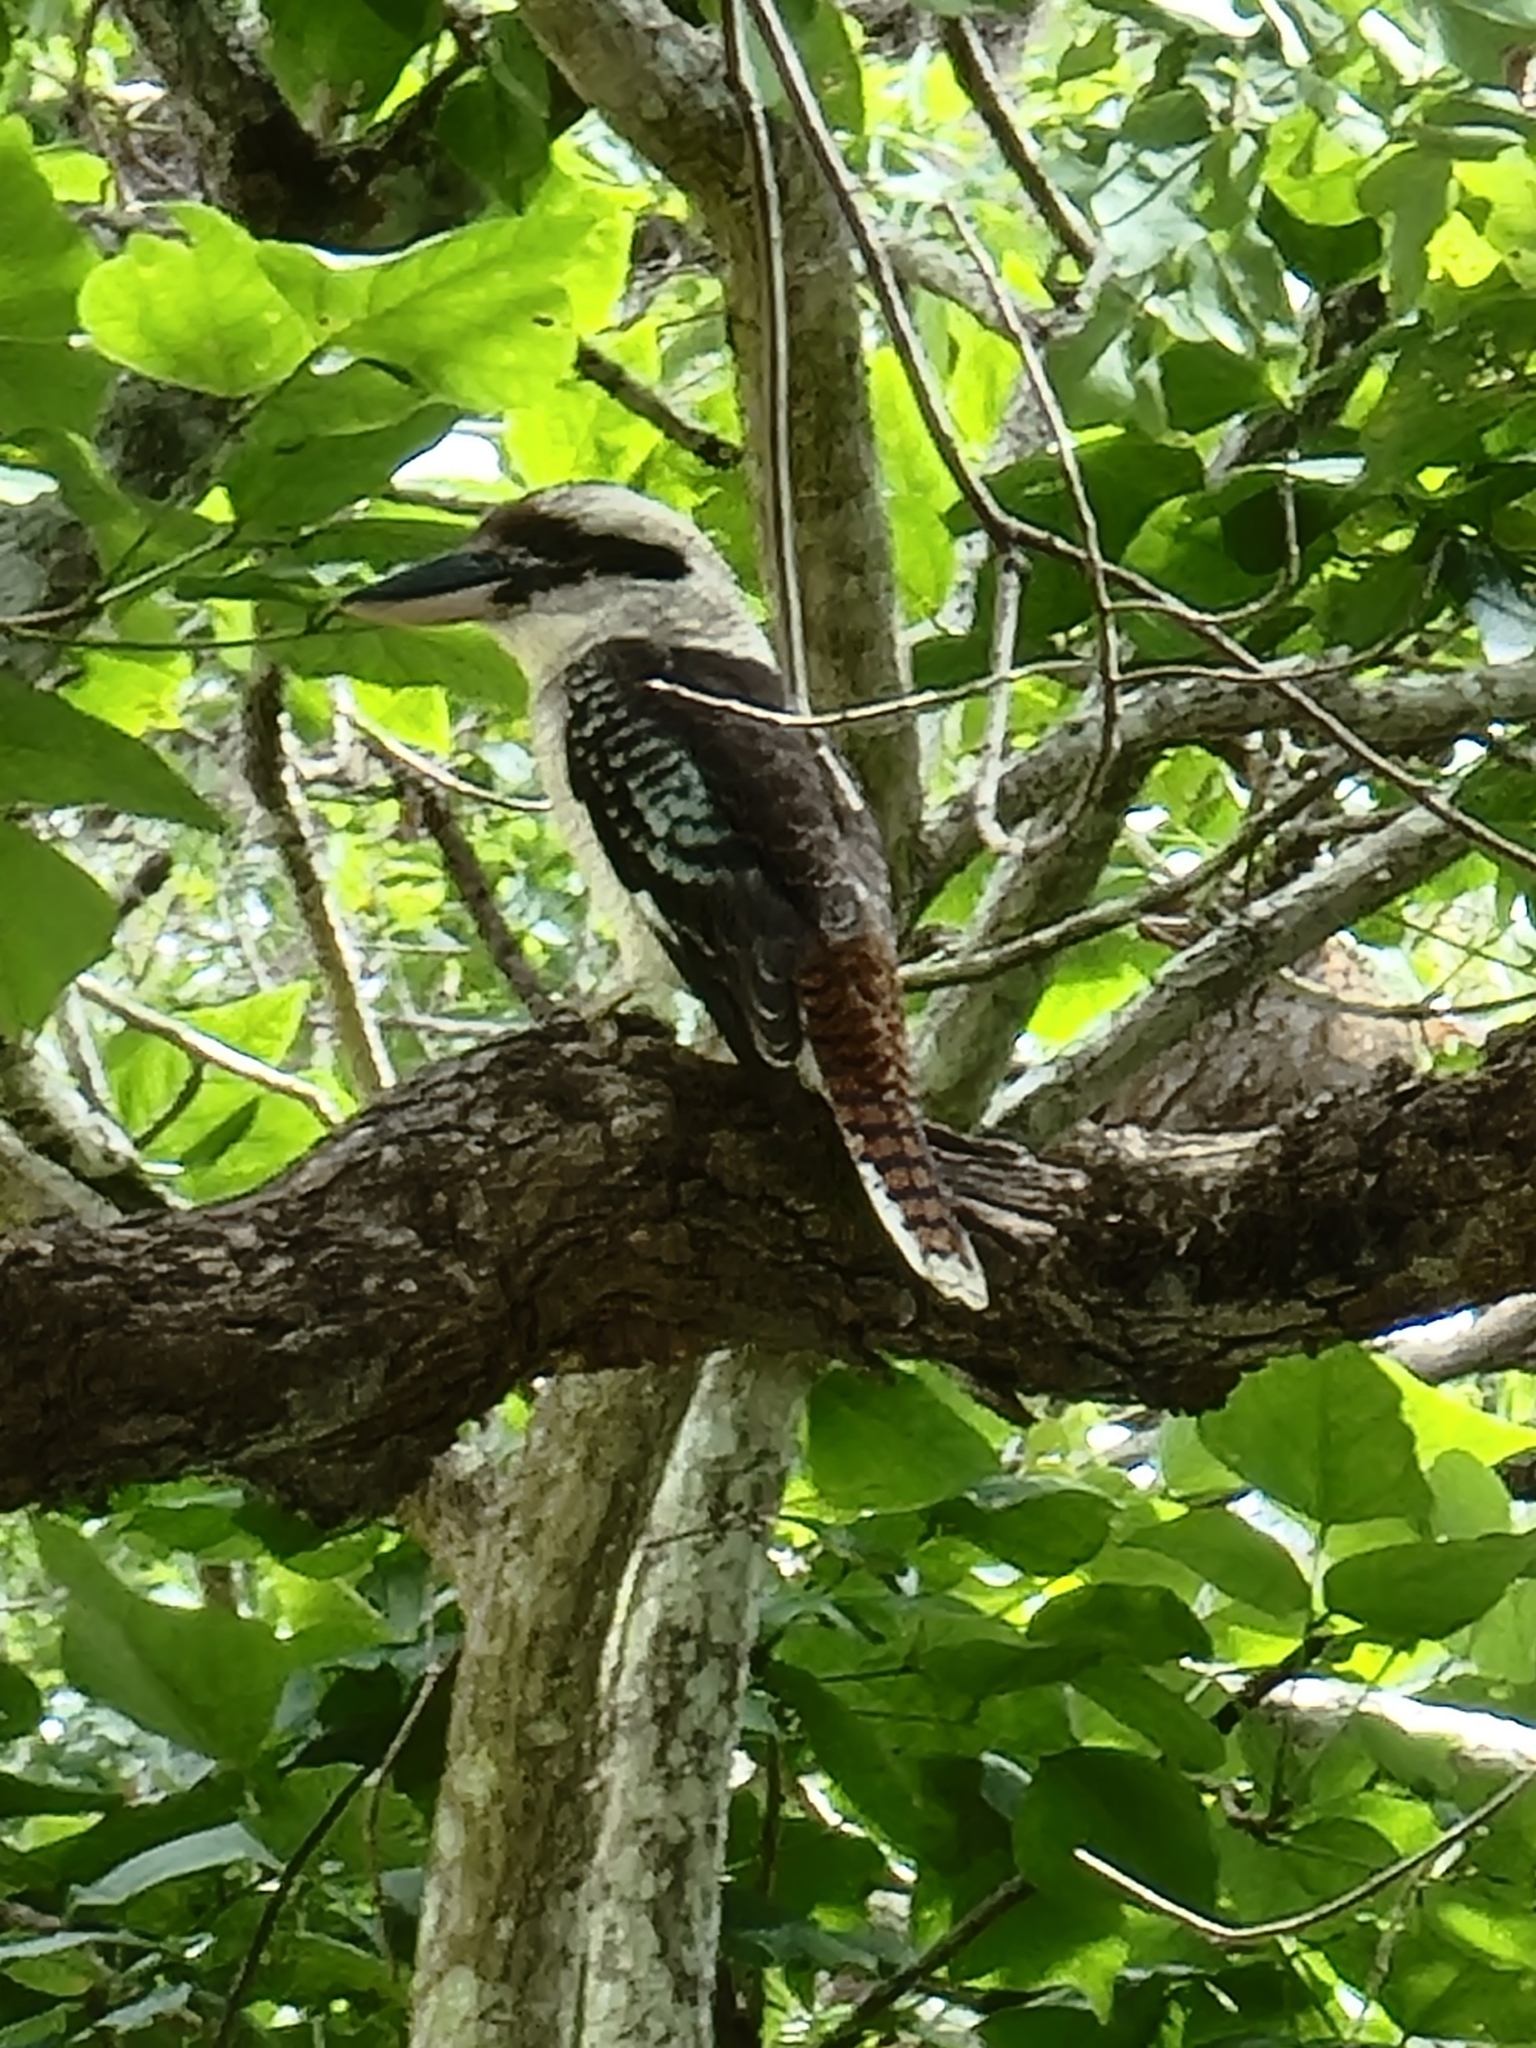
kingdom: Animalia
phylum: Chordata
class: Aves
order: Coraciiformes
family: Alcedinidae
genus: Dacelo
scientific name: Dacelo novaeguineae
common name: Laughing kookaburra
